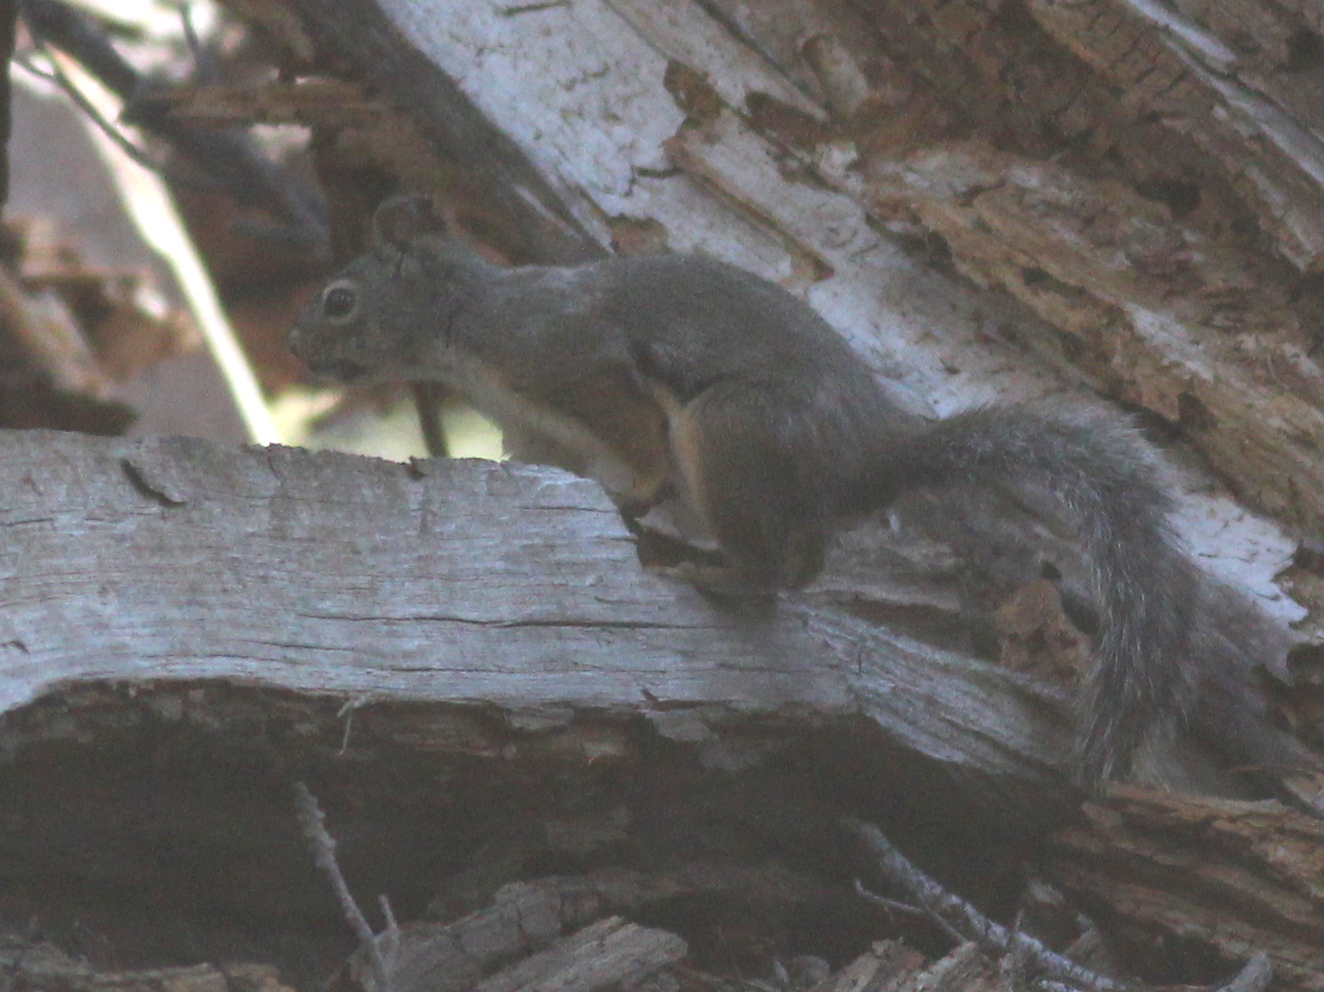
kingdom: Animalia
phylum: Chordata
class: Mammalia
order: Rodentia
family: Sciuridae
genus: Tamiasciurus
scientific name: Tamiasciurus douglasii
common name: Douglas's squirrel
